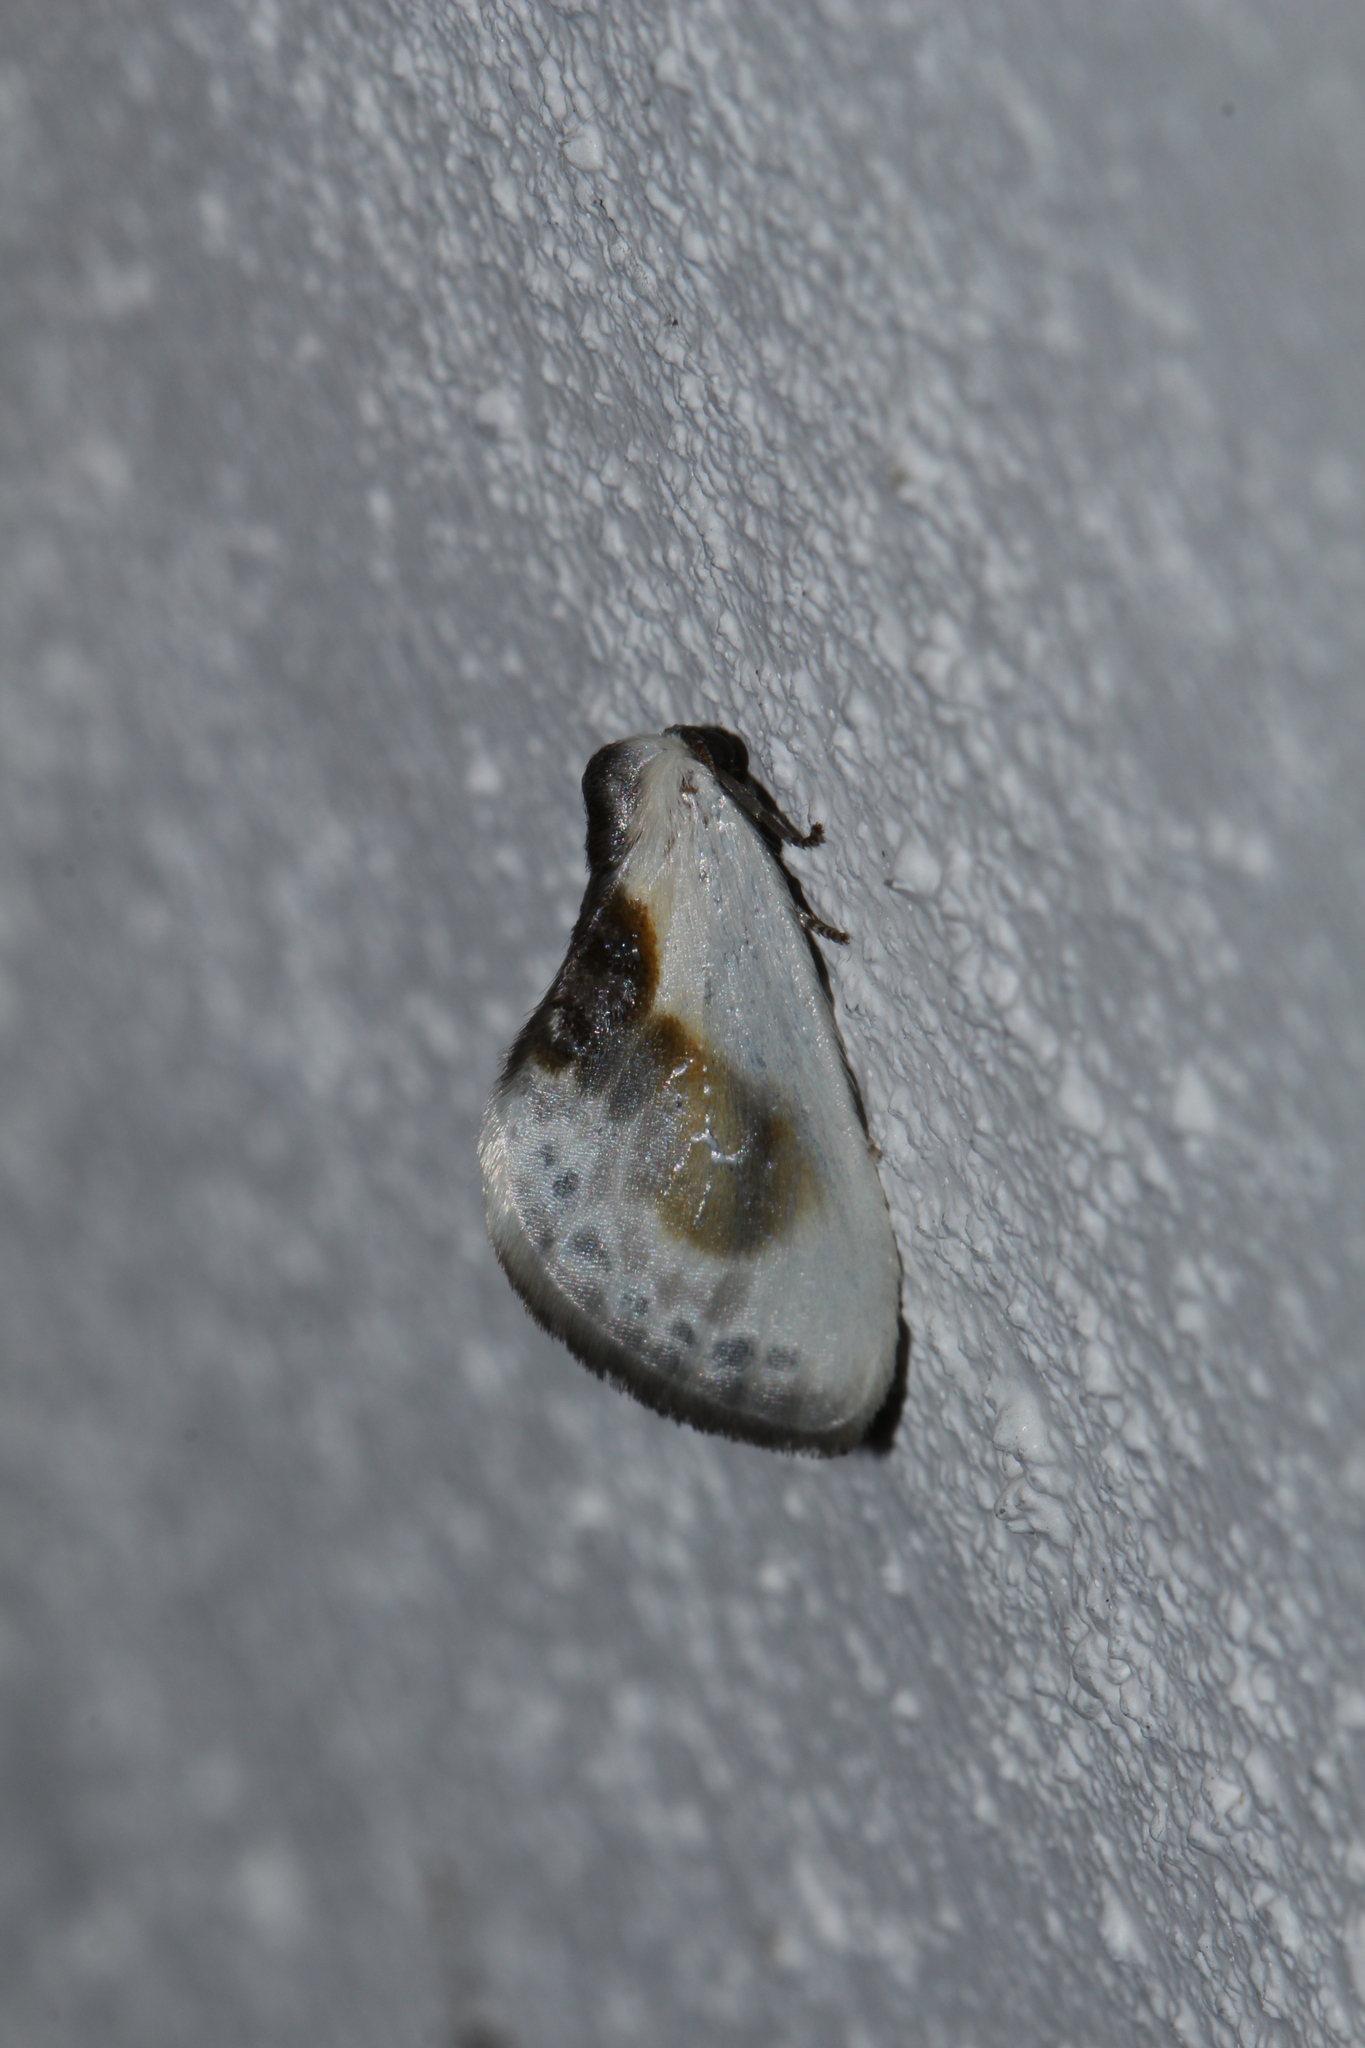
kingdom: Animalia
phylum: Arthropoda
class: Insecta
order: Lepidoptera
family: Drepanidae
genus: Cilix
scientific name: Cilix glaucata
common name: Chinese character
